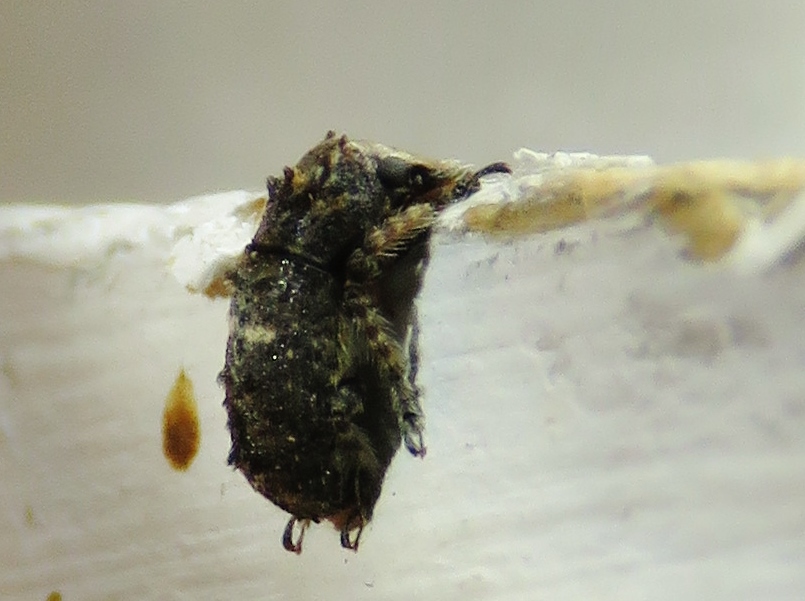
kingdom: Animalia
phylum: Arthropoda
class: Insecta
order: Coleoptera
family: Anthribidae
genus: Toxonotus
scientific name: Toxonotus cornutus
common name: Fungus weevil
